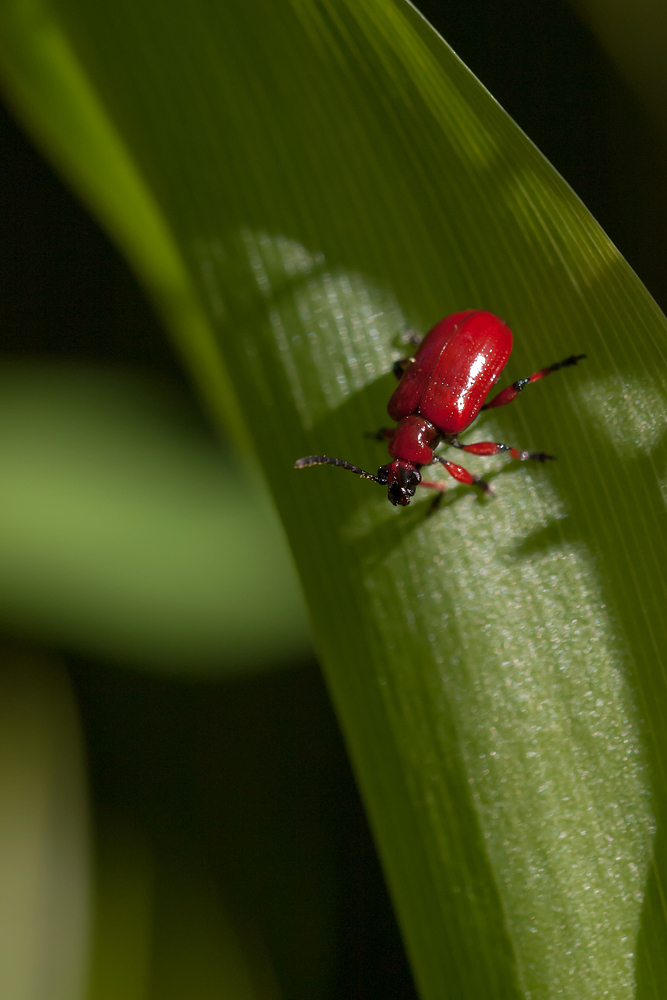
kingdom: Animalia
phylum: Arthropoda
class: Insecta
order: Coleoptera
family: Chrysomelidae
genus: Lilioceris
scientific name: Lilioceris merdigera
